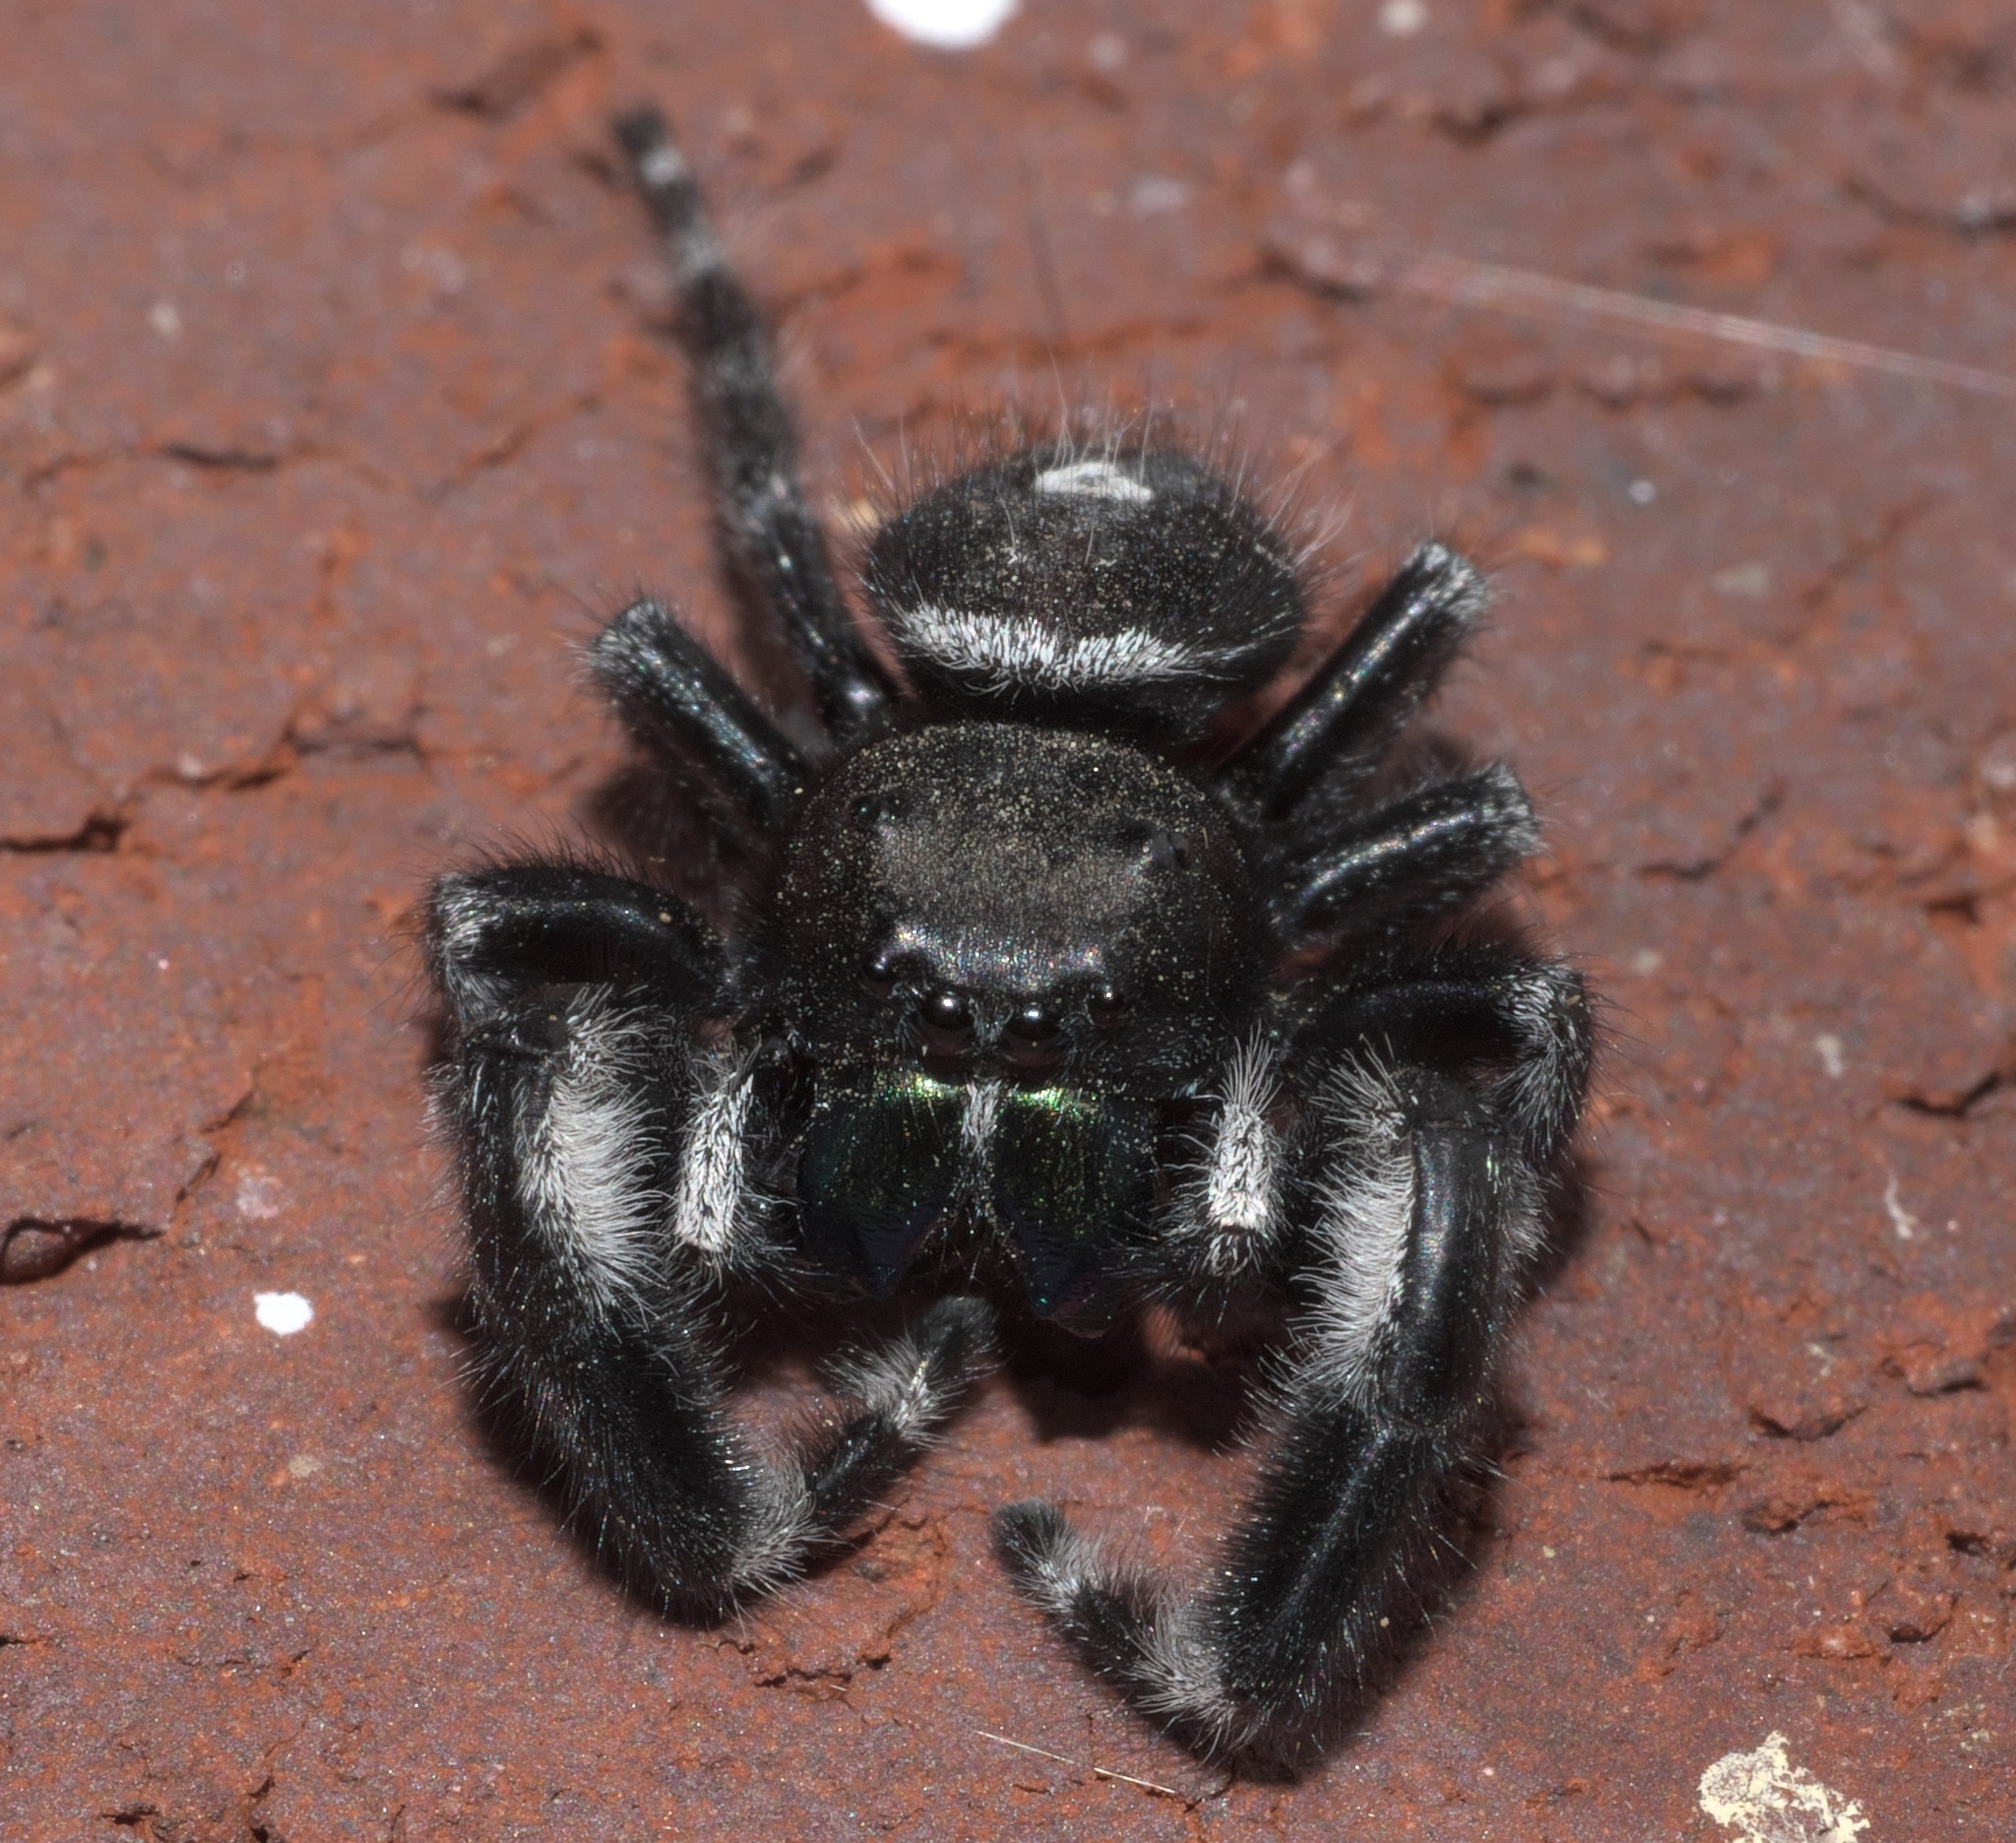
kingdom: Animalia
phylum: Arthropoda
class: Arachnida
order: Araneae
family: Salticidae
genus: Phidippus
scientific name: Phidippus audax
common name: Bold jumper
